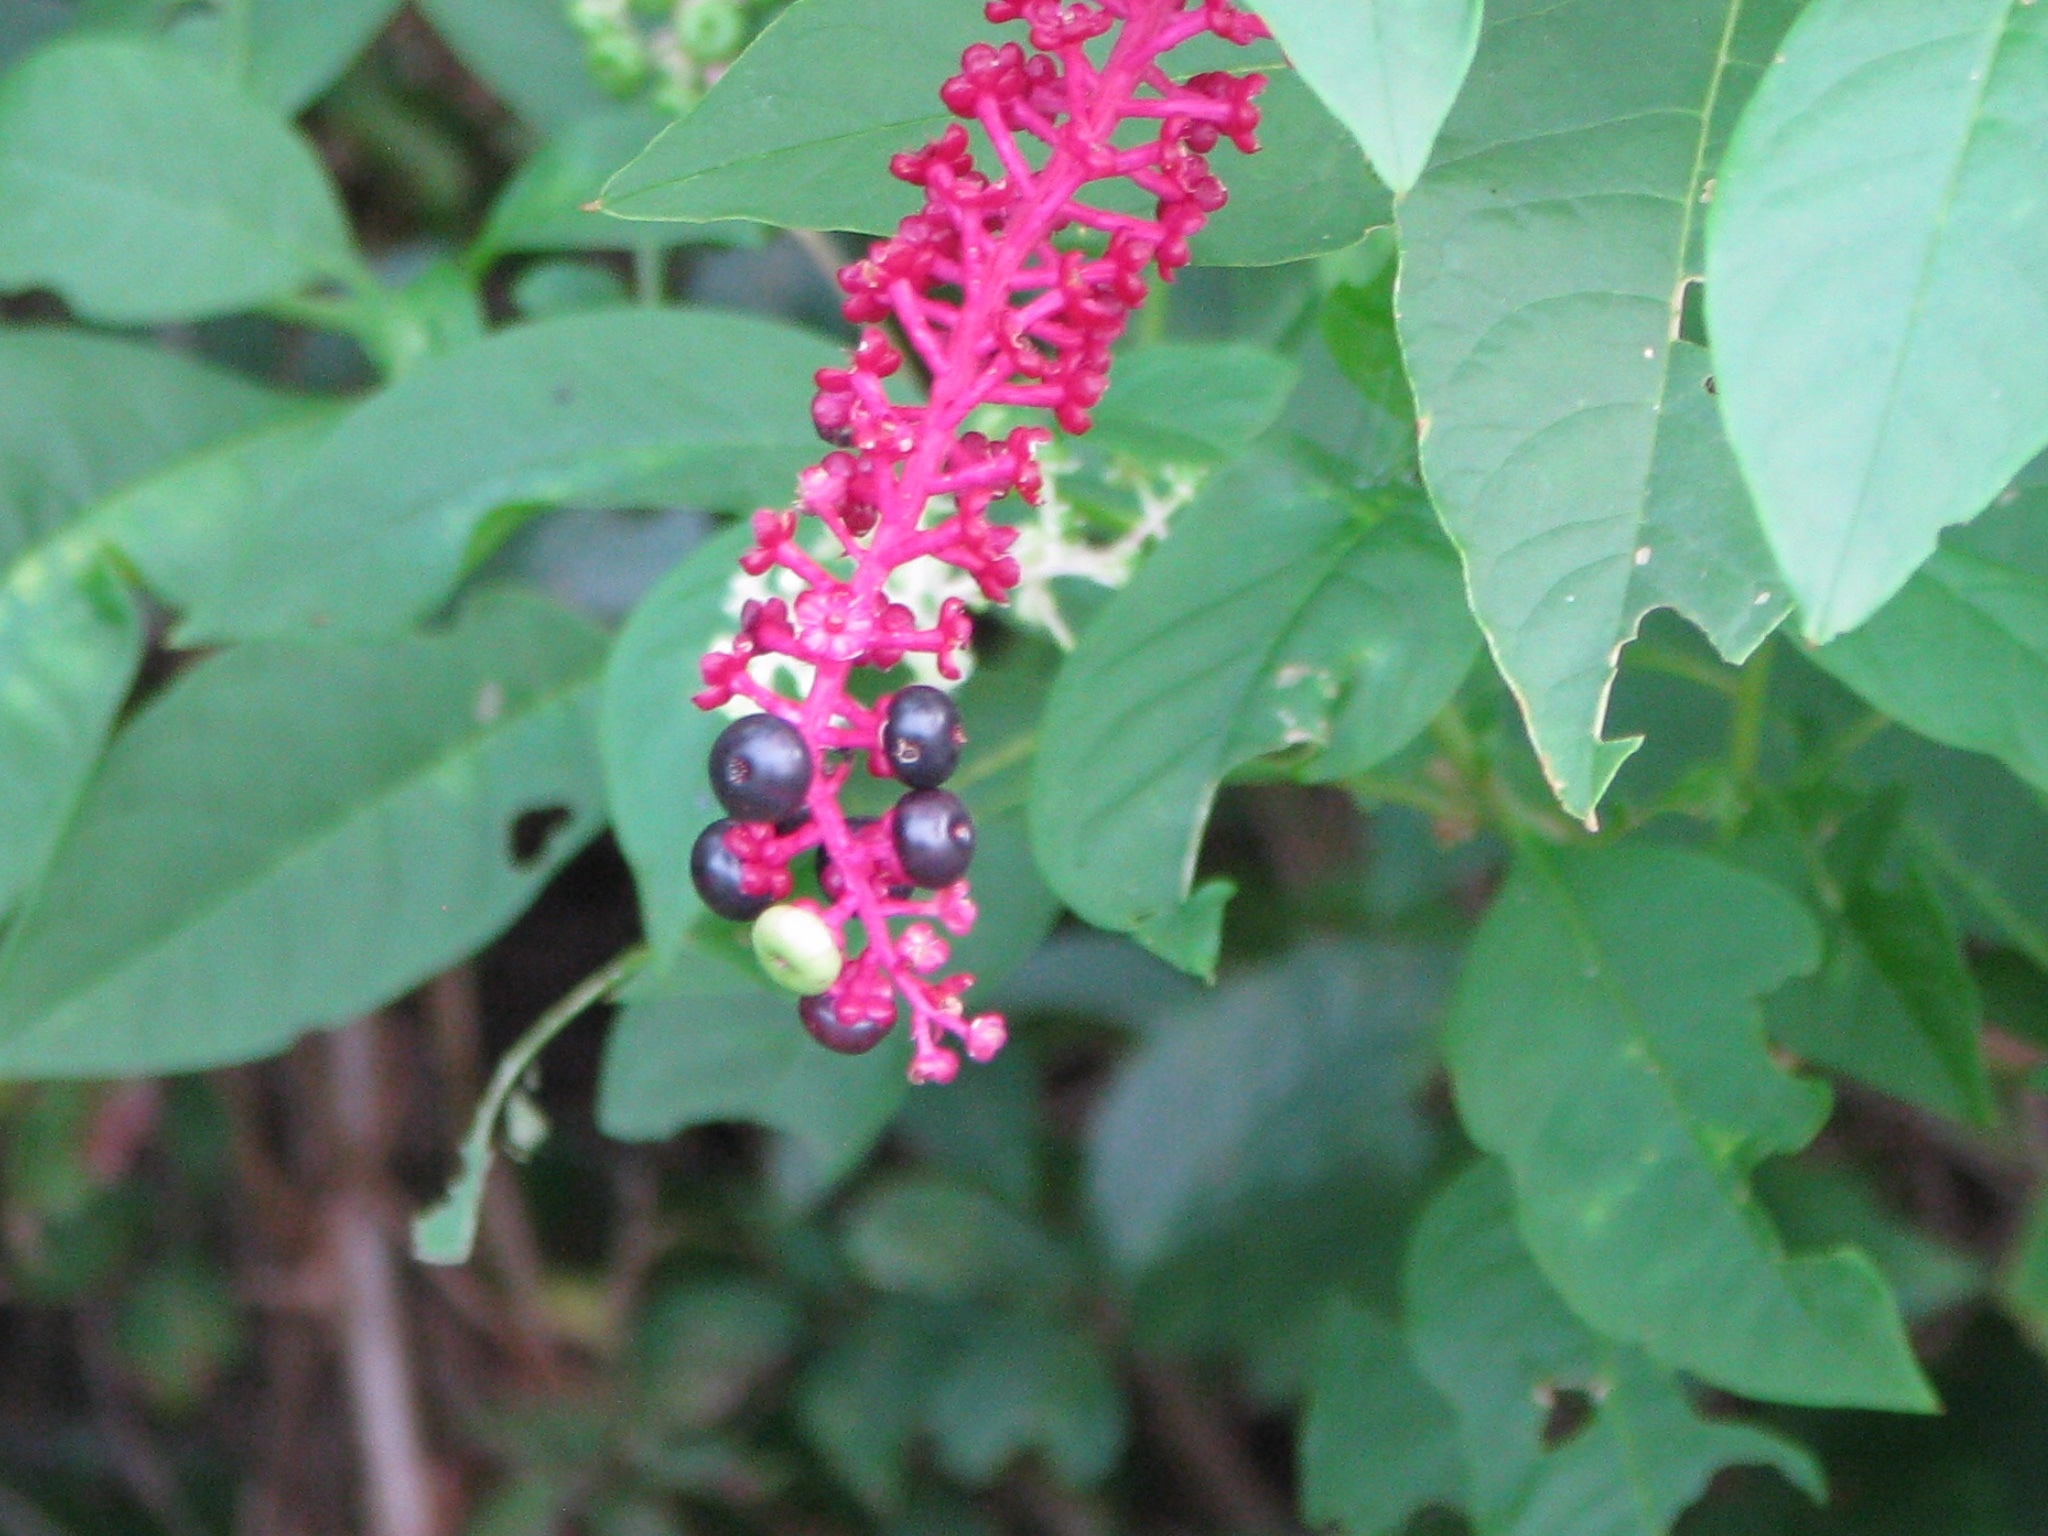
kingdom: Plantae
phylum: Tracheophyta
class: Magnoliopsida
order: Caryophyllales
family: Phytolaccaceae
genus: Phytolacca
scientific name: Phytolacca americana
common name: American pokeweed
